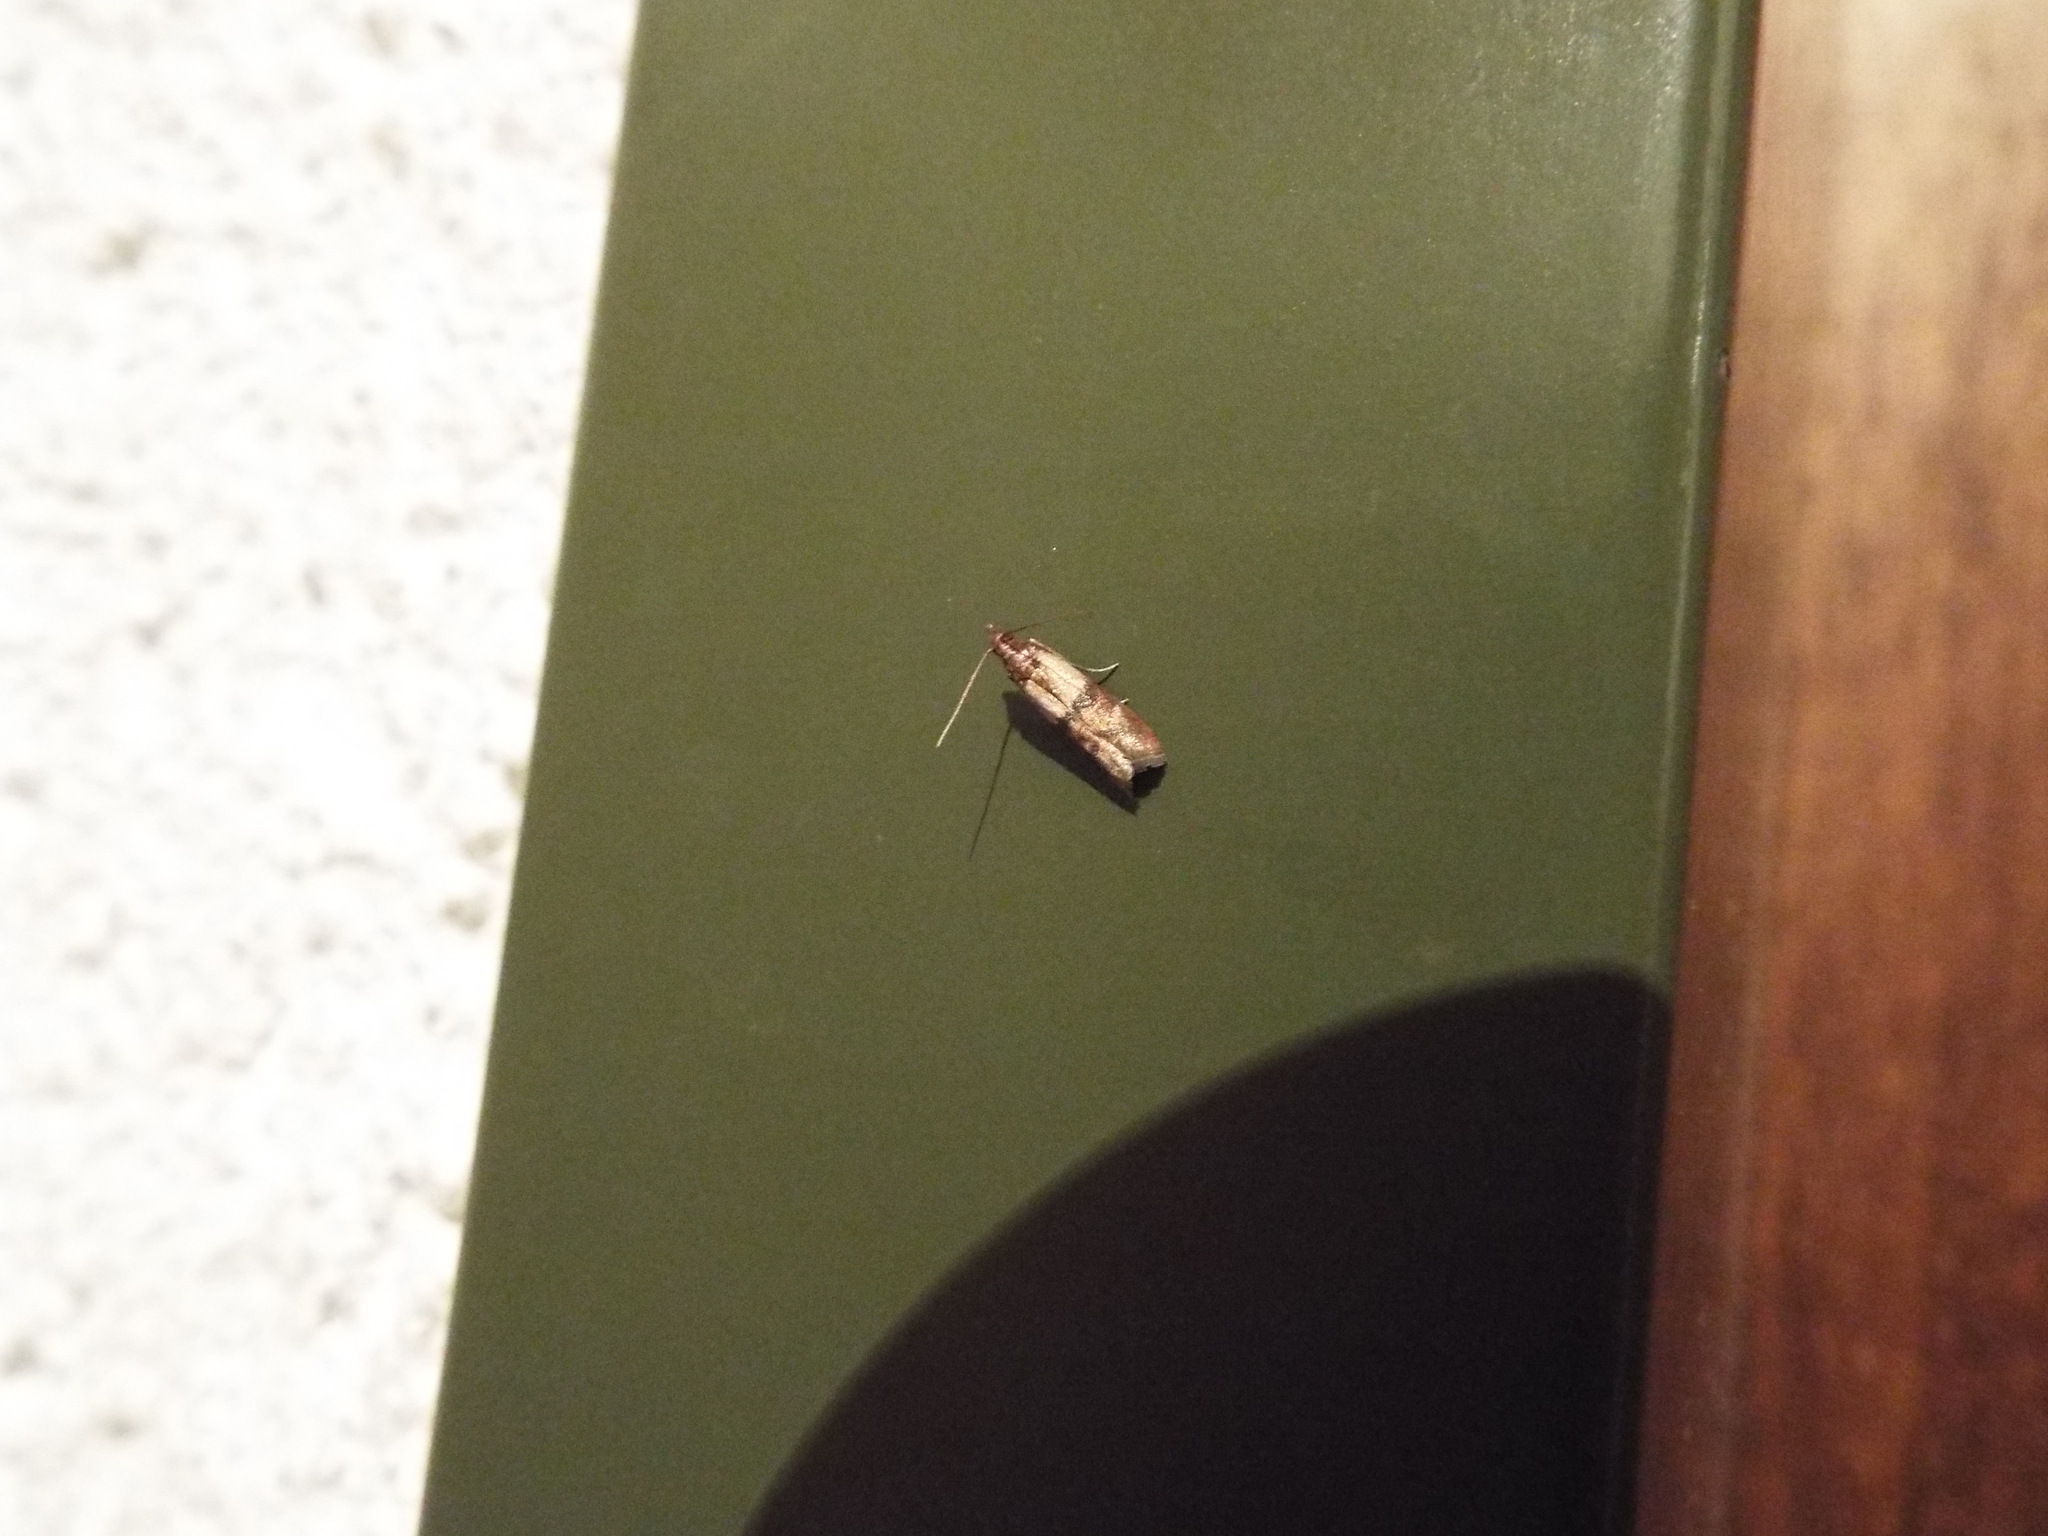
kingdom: Animalia
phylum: Arthropoda
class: Insecta
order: Lepidoptera
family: Pyralidae
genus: Plodia
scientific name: Plodia interpunctella
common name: Indian meal moth
